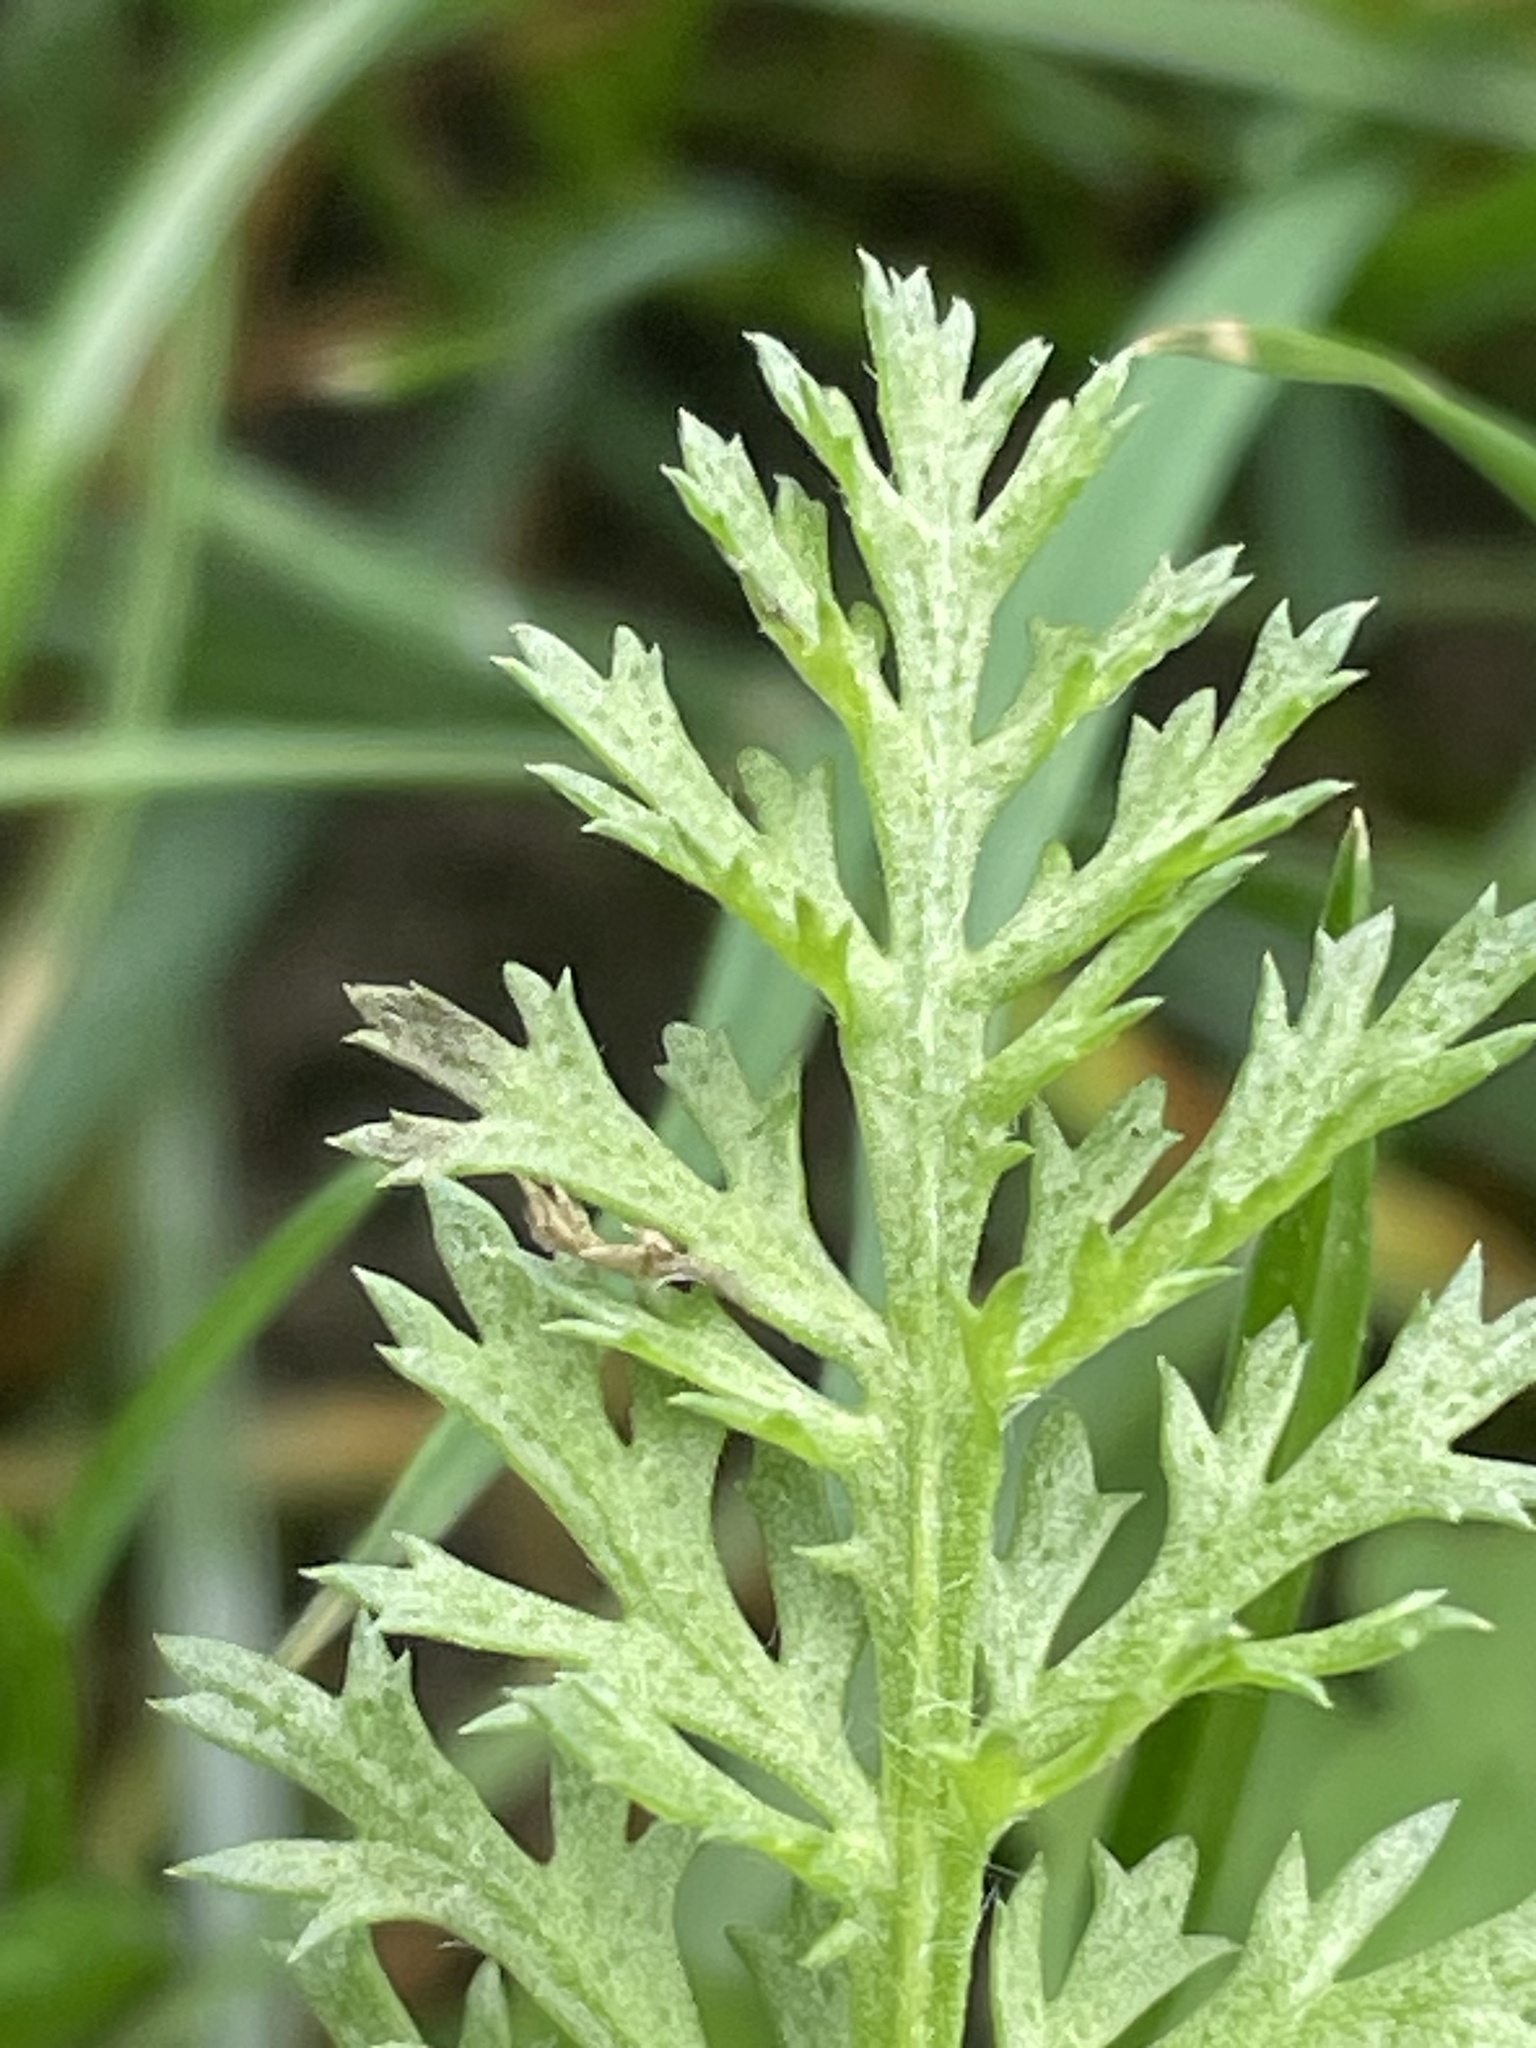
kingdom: Plantae
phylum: Tracheophyta
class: Magnoliopsida
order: Asterales
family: Asteraceae
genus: Achillea
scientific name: Achillea millefolium
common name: Yarrow
